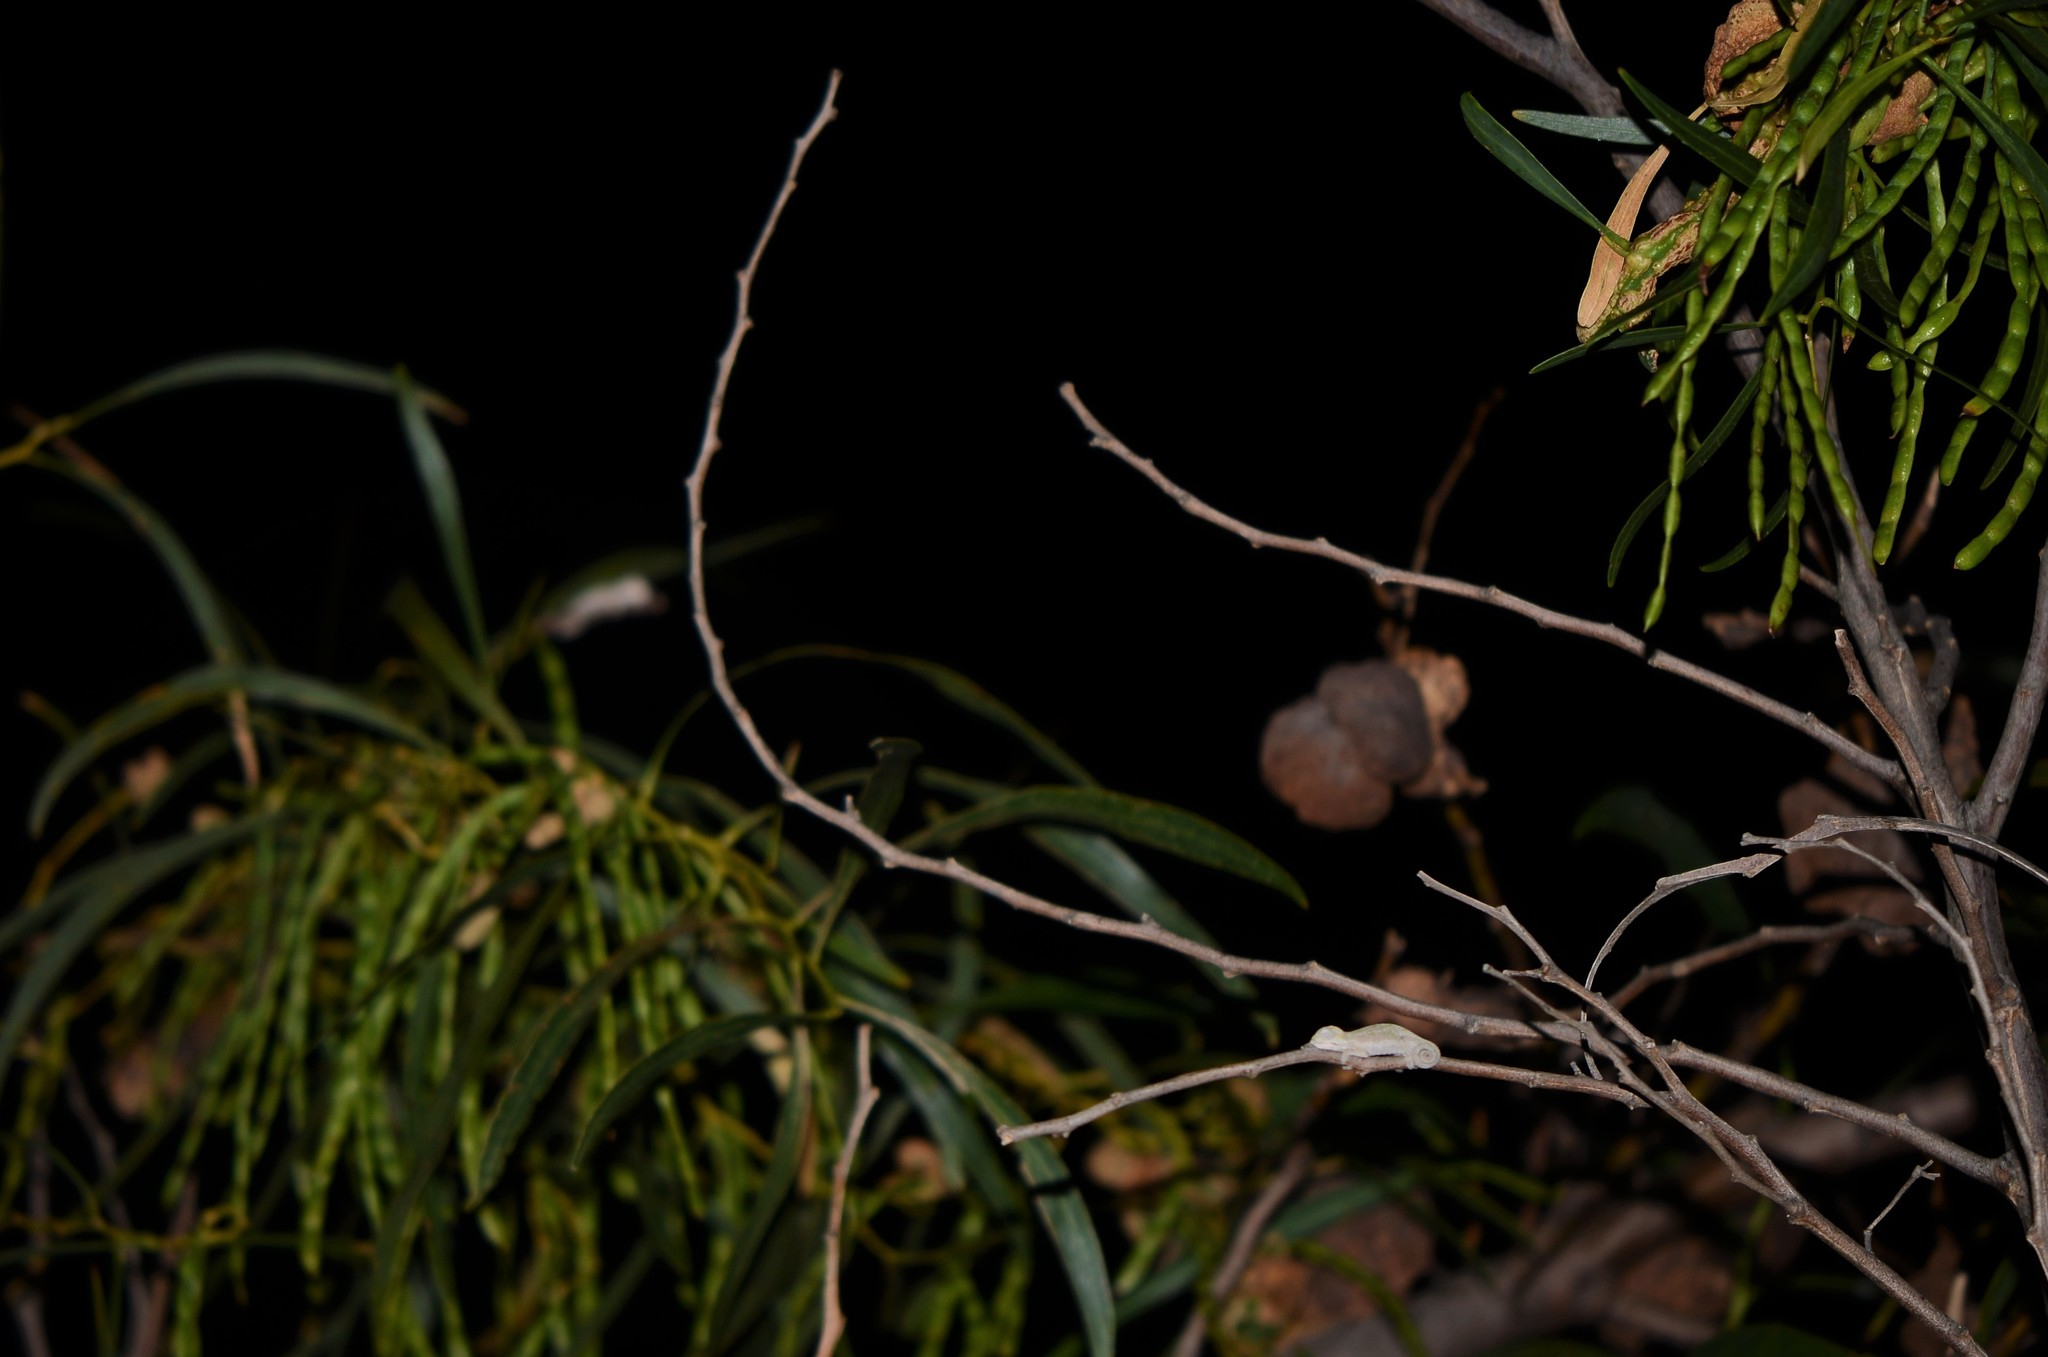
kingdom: Animalia
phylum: Chordata
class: Squamata
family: Chamaeleonidae
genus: Bradypodion
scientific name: Bradypodion pumilum
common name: Cape dwarf chameleon
